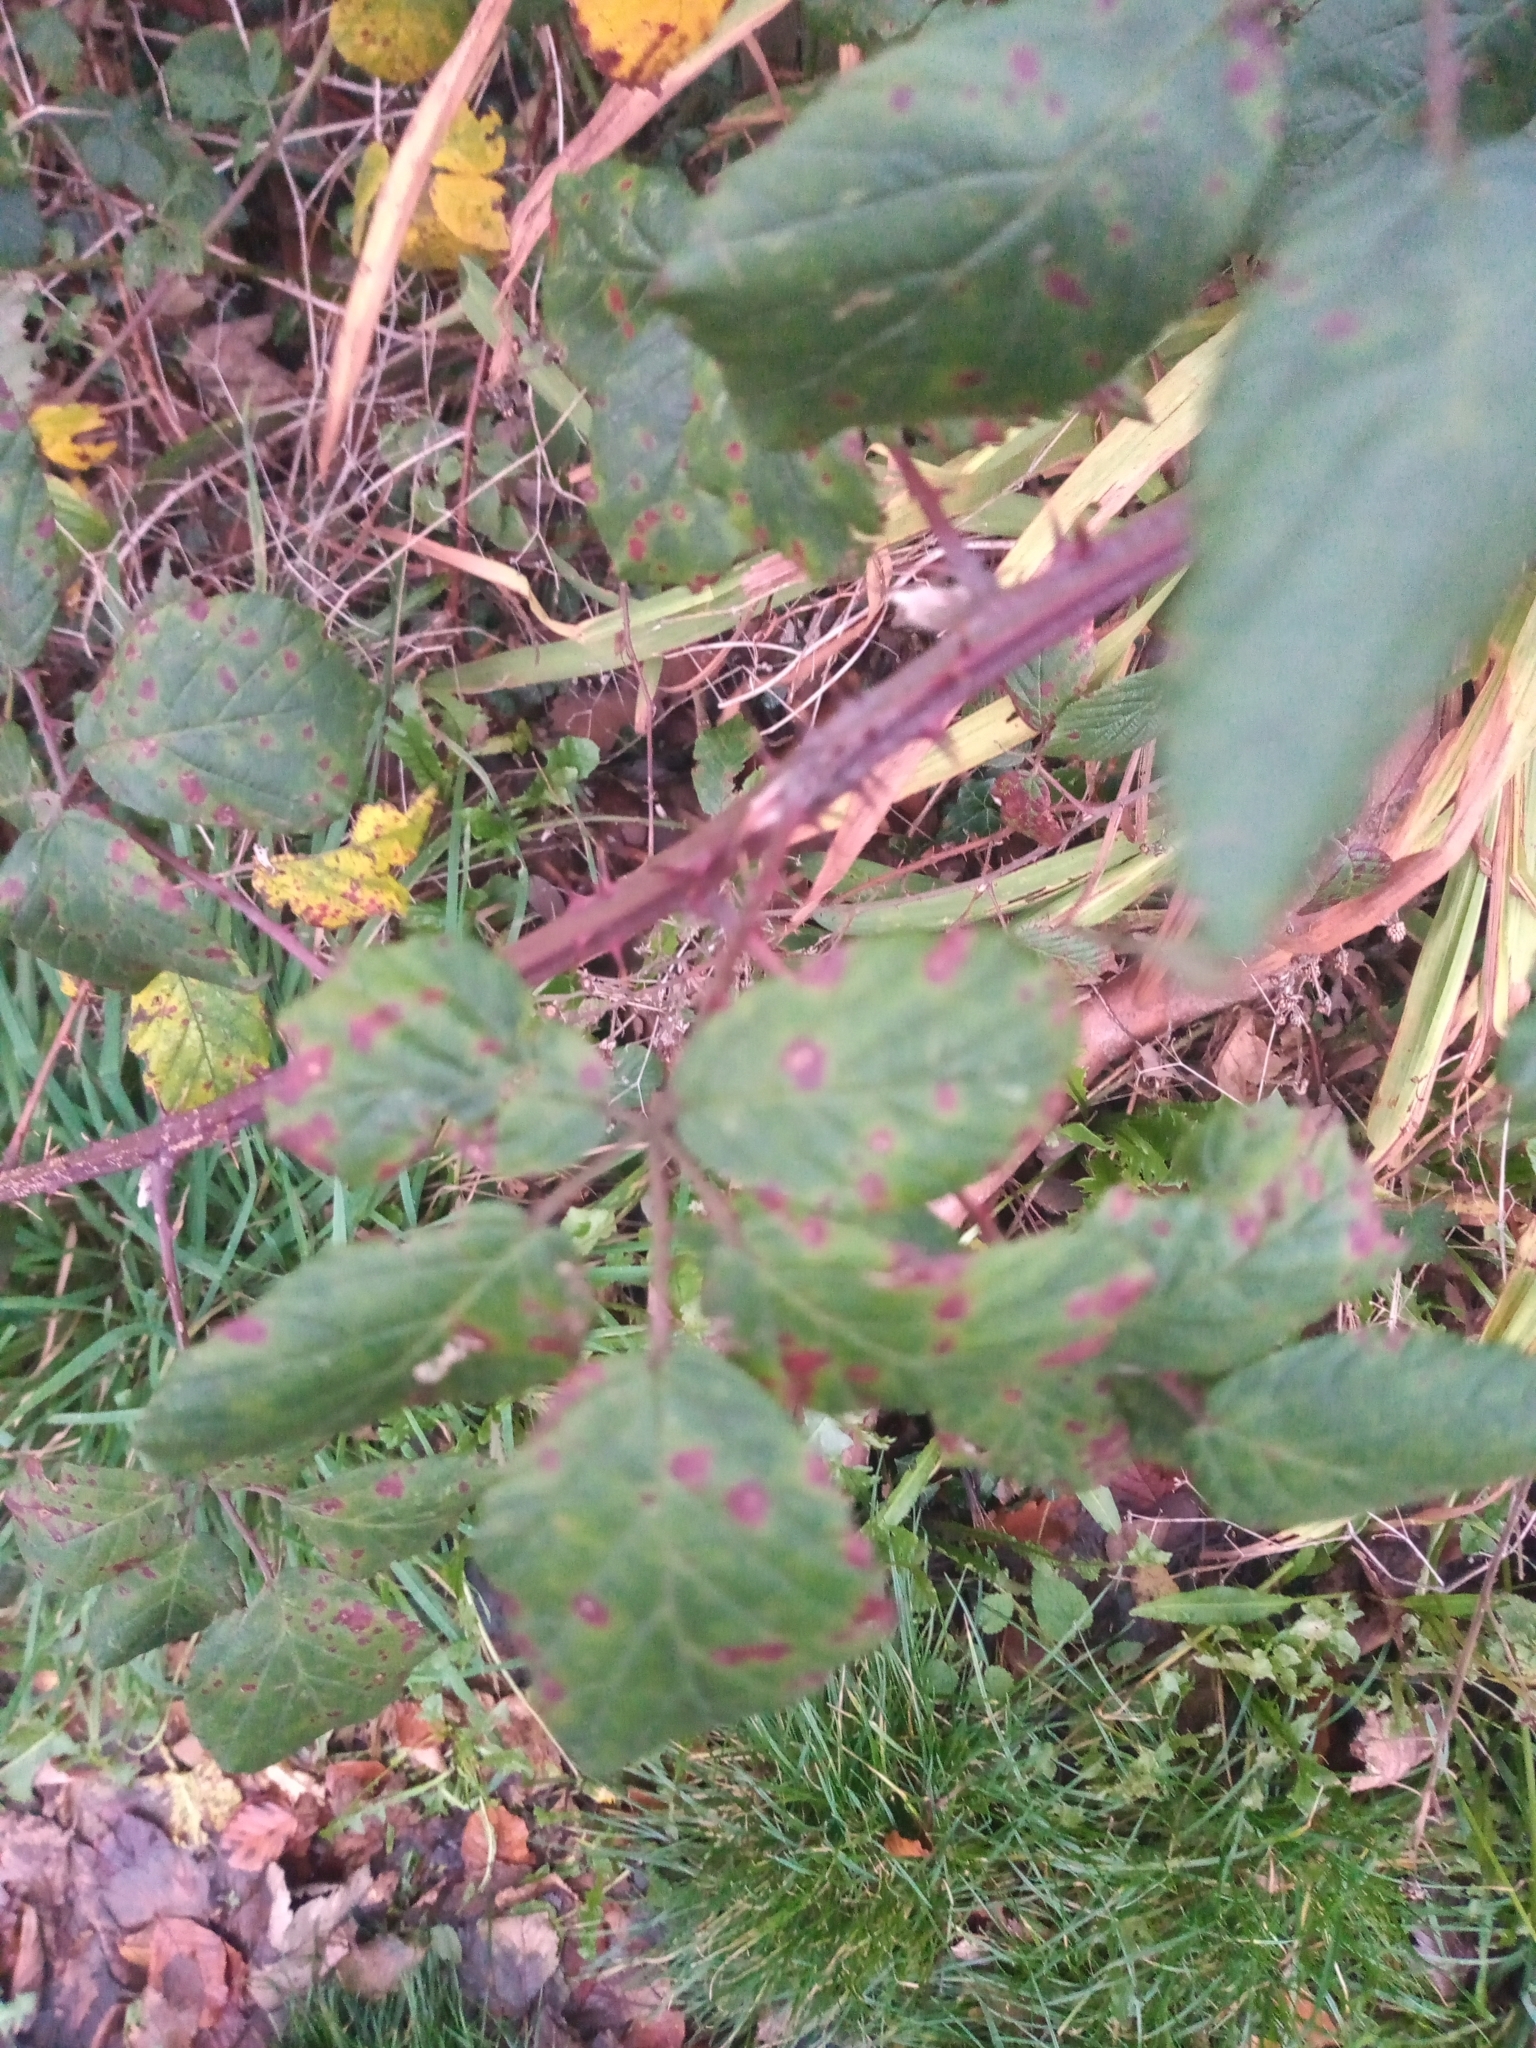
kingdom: Fungi
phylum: Basidiomycota
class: Pucciniomycetes
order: Pucciniales
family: Phragmidiaceae
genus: Phragmidium
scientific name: Phragmidium violaceum
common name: Violet bramble rust
